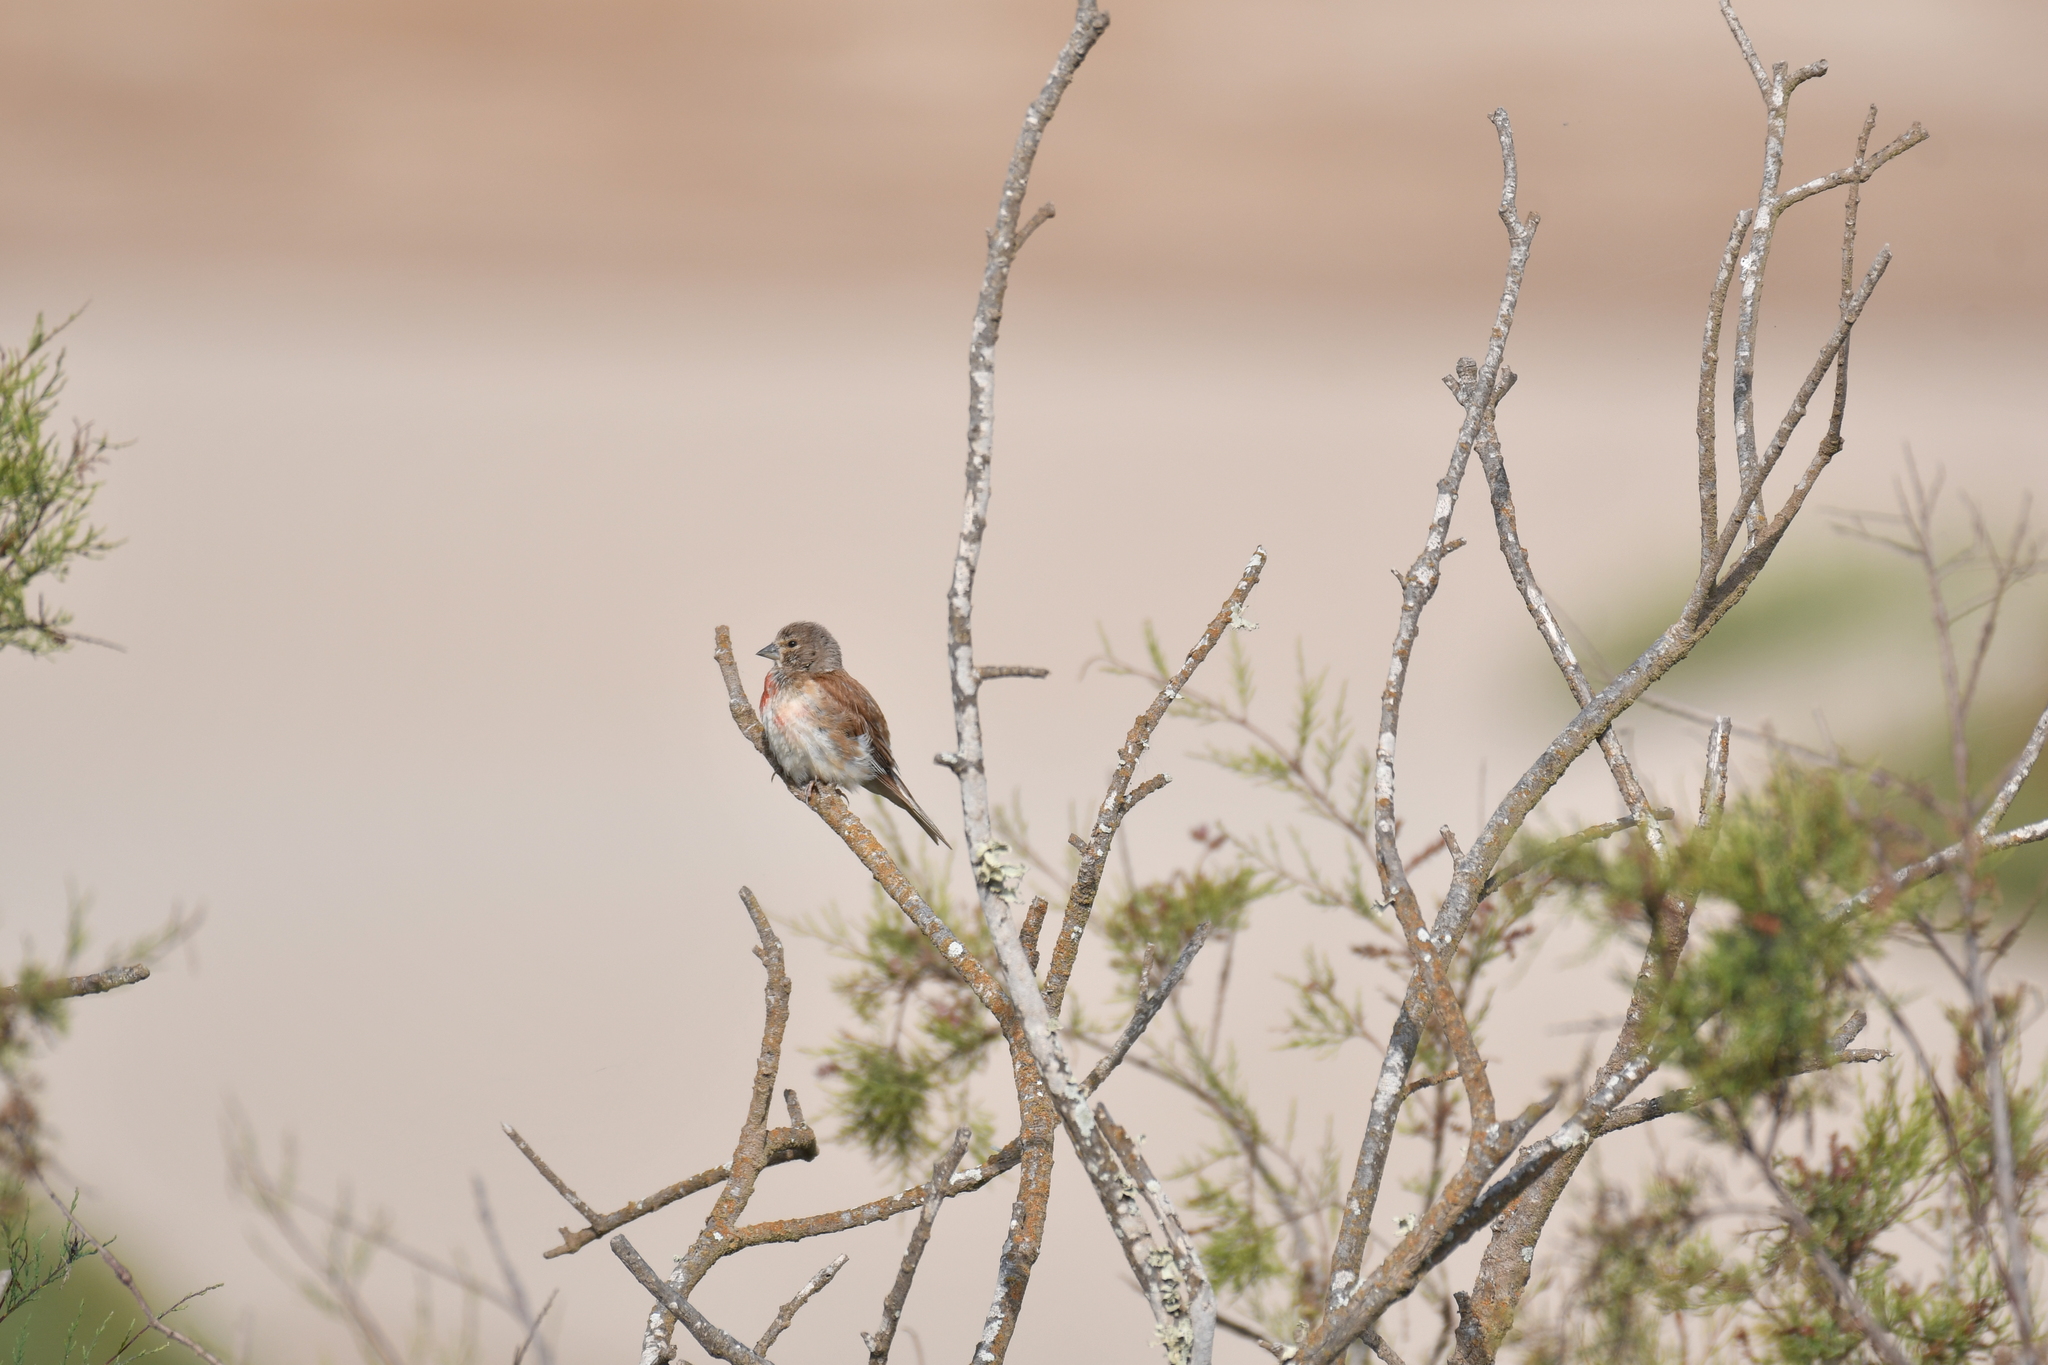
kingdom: Animalia
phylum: Chordata
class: Aves
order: Passeriformes
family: Fringillidae
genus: Linaria
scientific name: Linaria cannabina
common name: Common linnet
